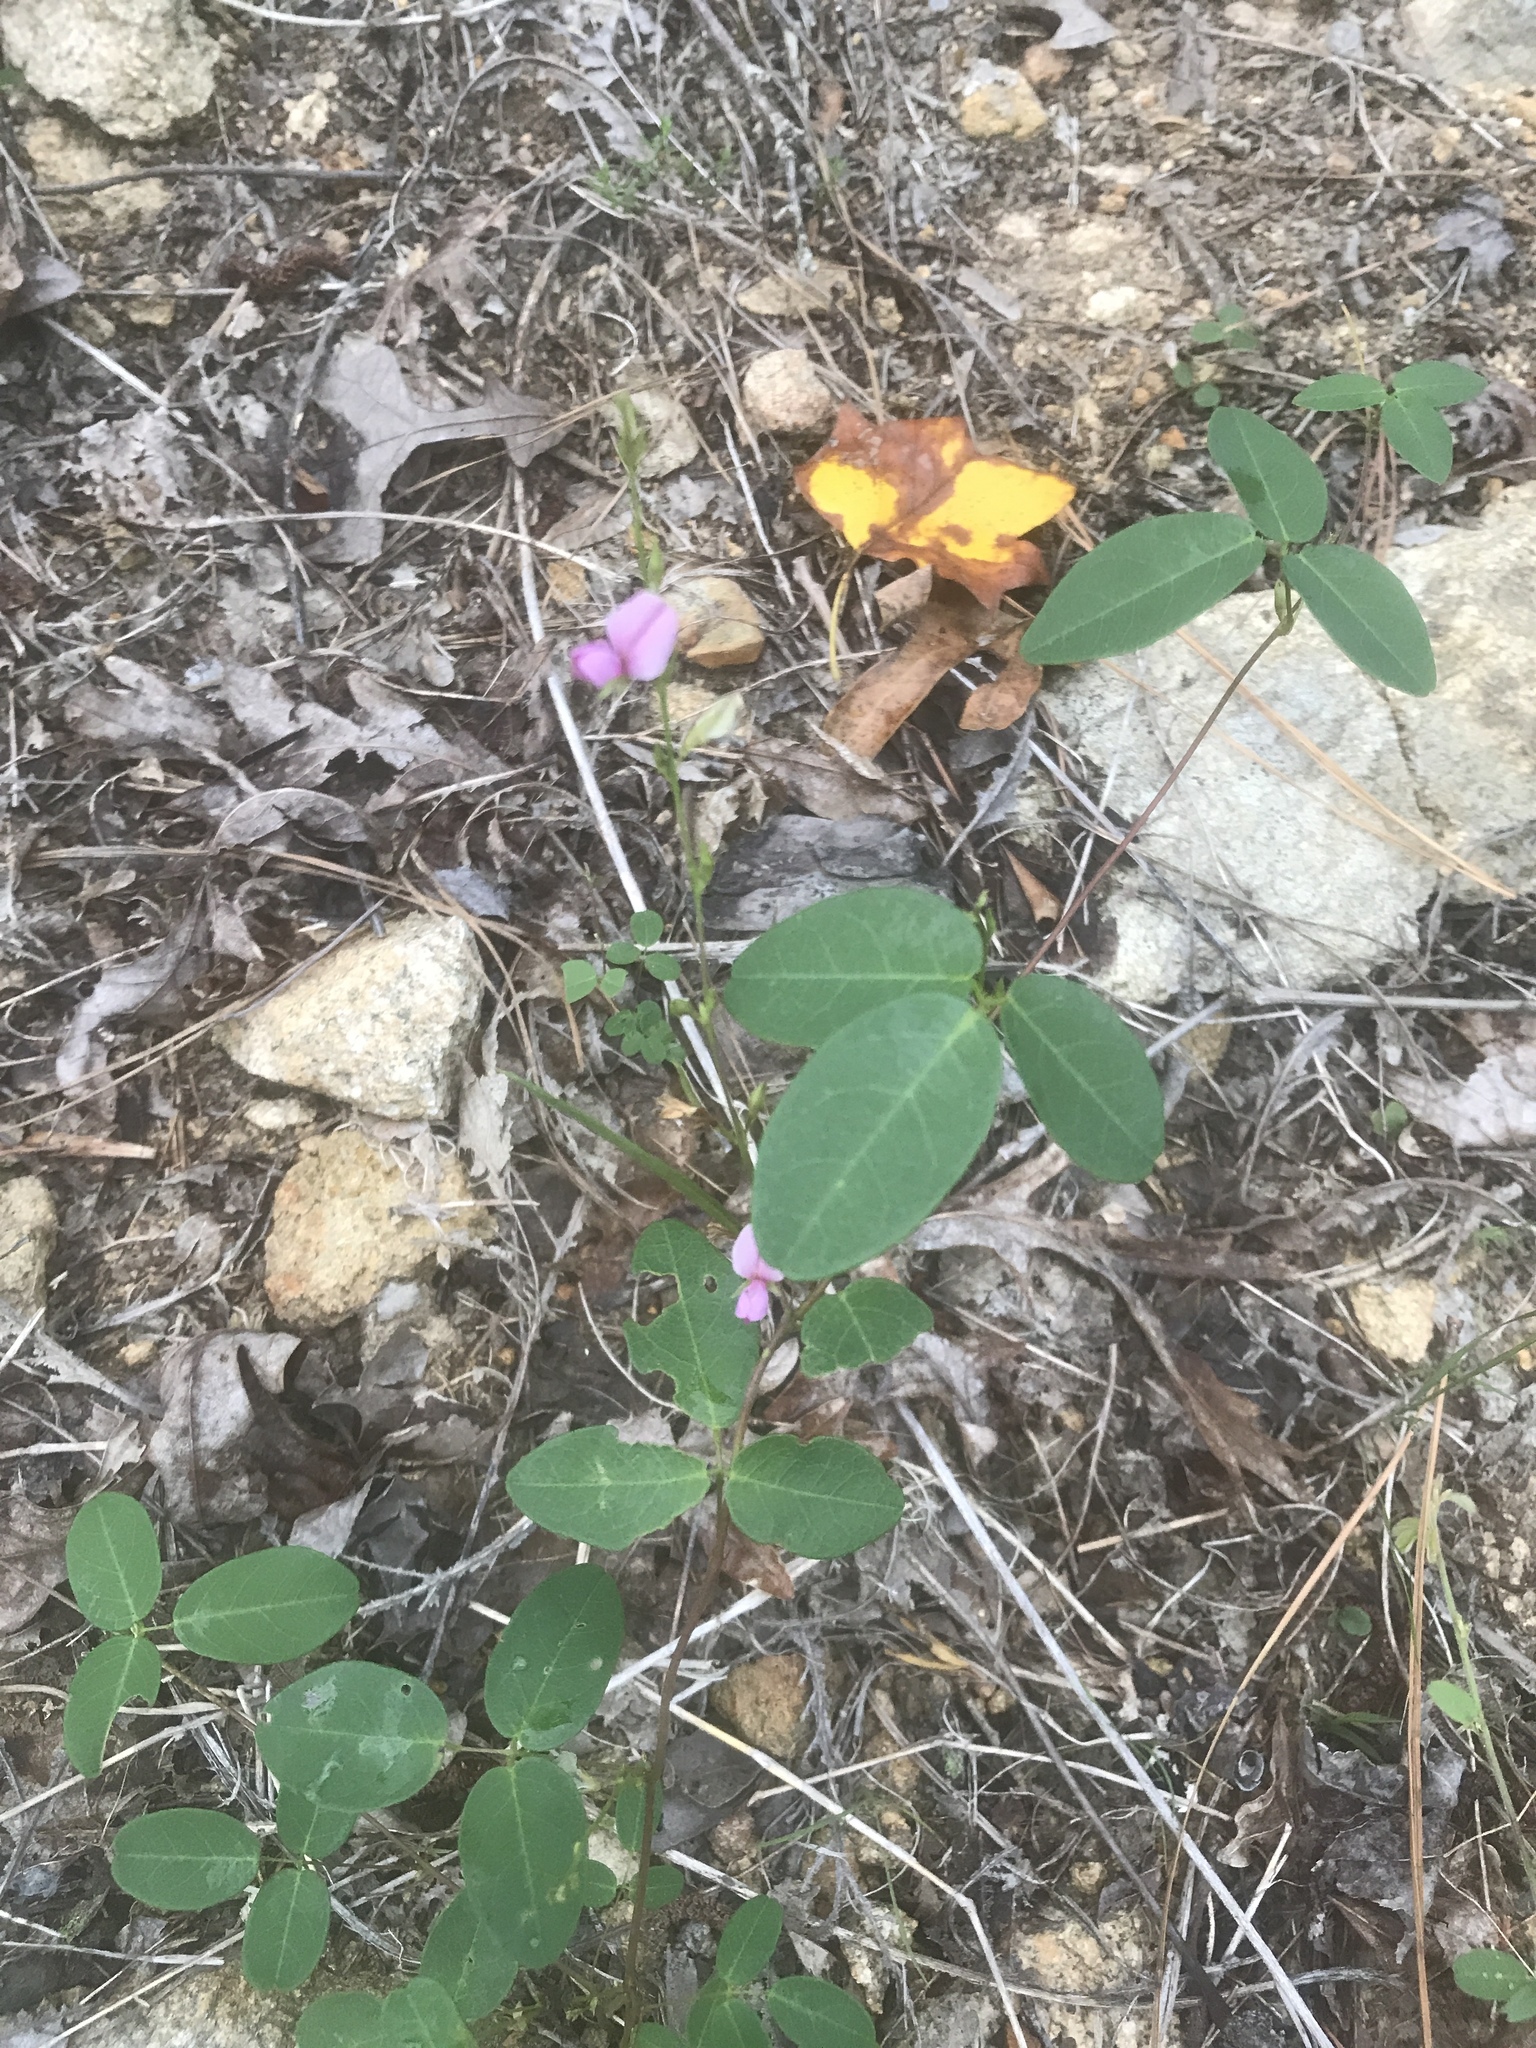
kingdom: Plantae
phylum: Tracheophyta
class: Magnoliopsida
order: Fabales
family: Fabaceae
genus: Galactia
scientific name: Galactia regularis
